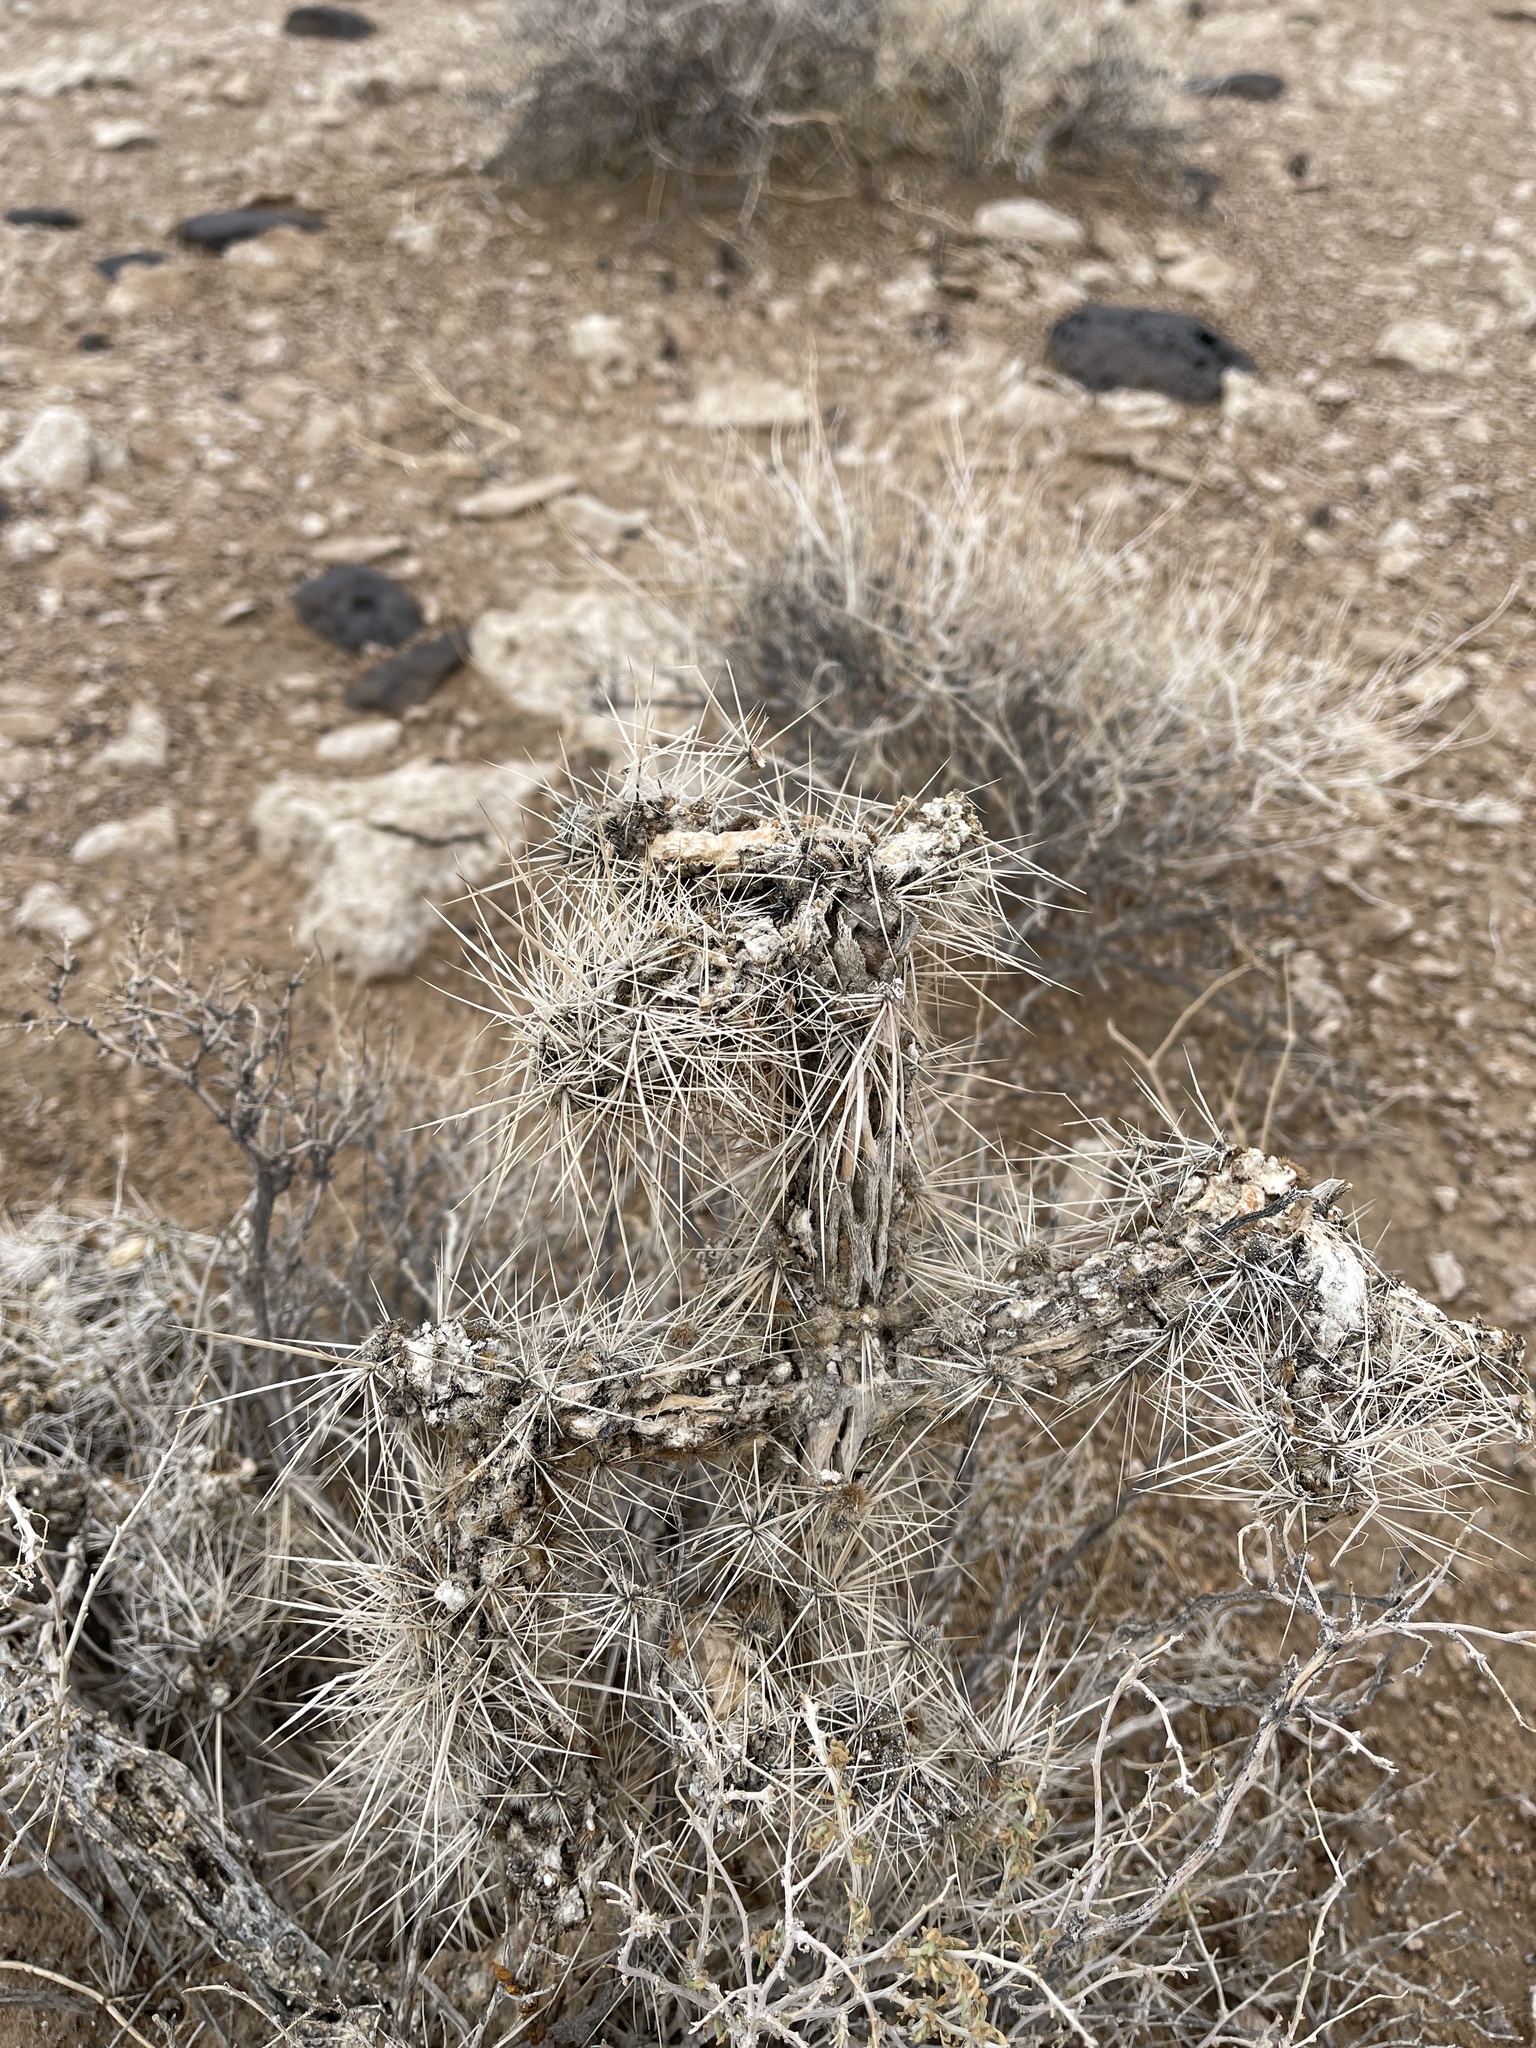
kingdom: Plantae
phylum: Tracheophyta
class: Magnoliopsida
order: Caryophyllales
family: Cactaceae
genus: Cylindropuntia
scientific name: Cylindropuntia echinocarpa
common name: Ground cholla
